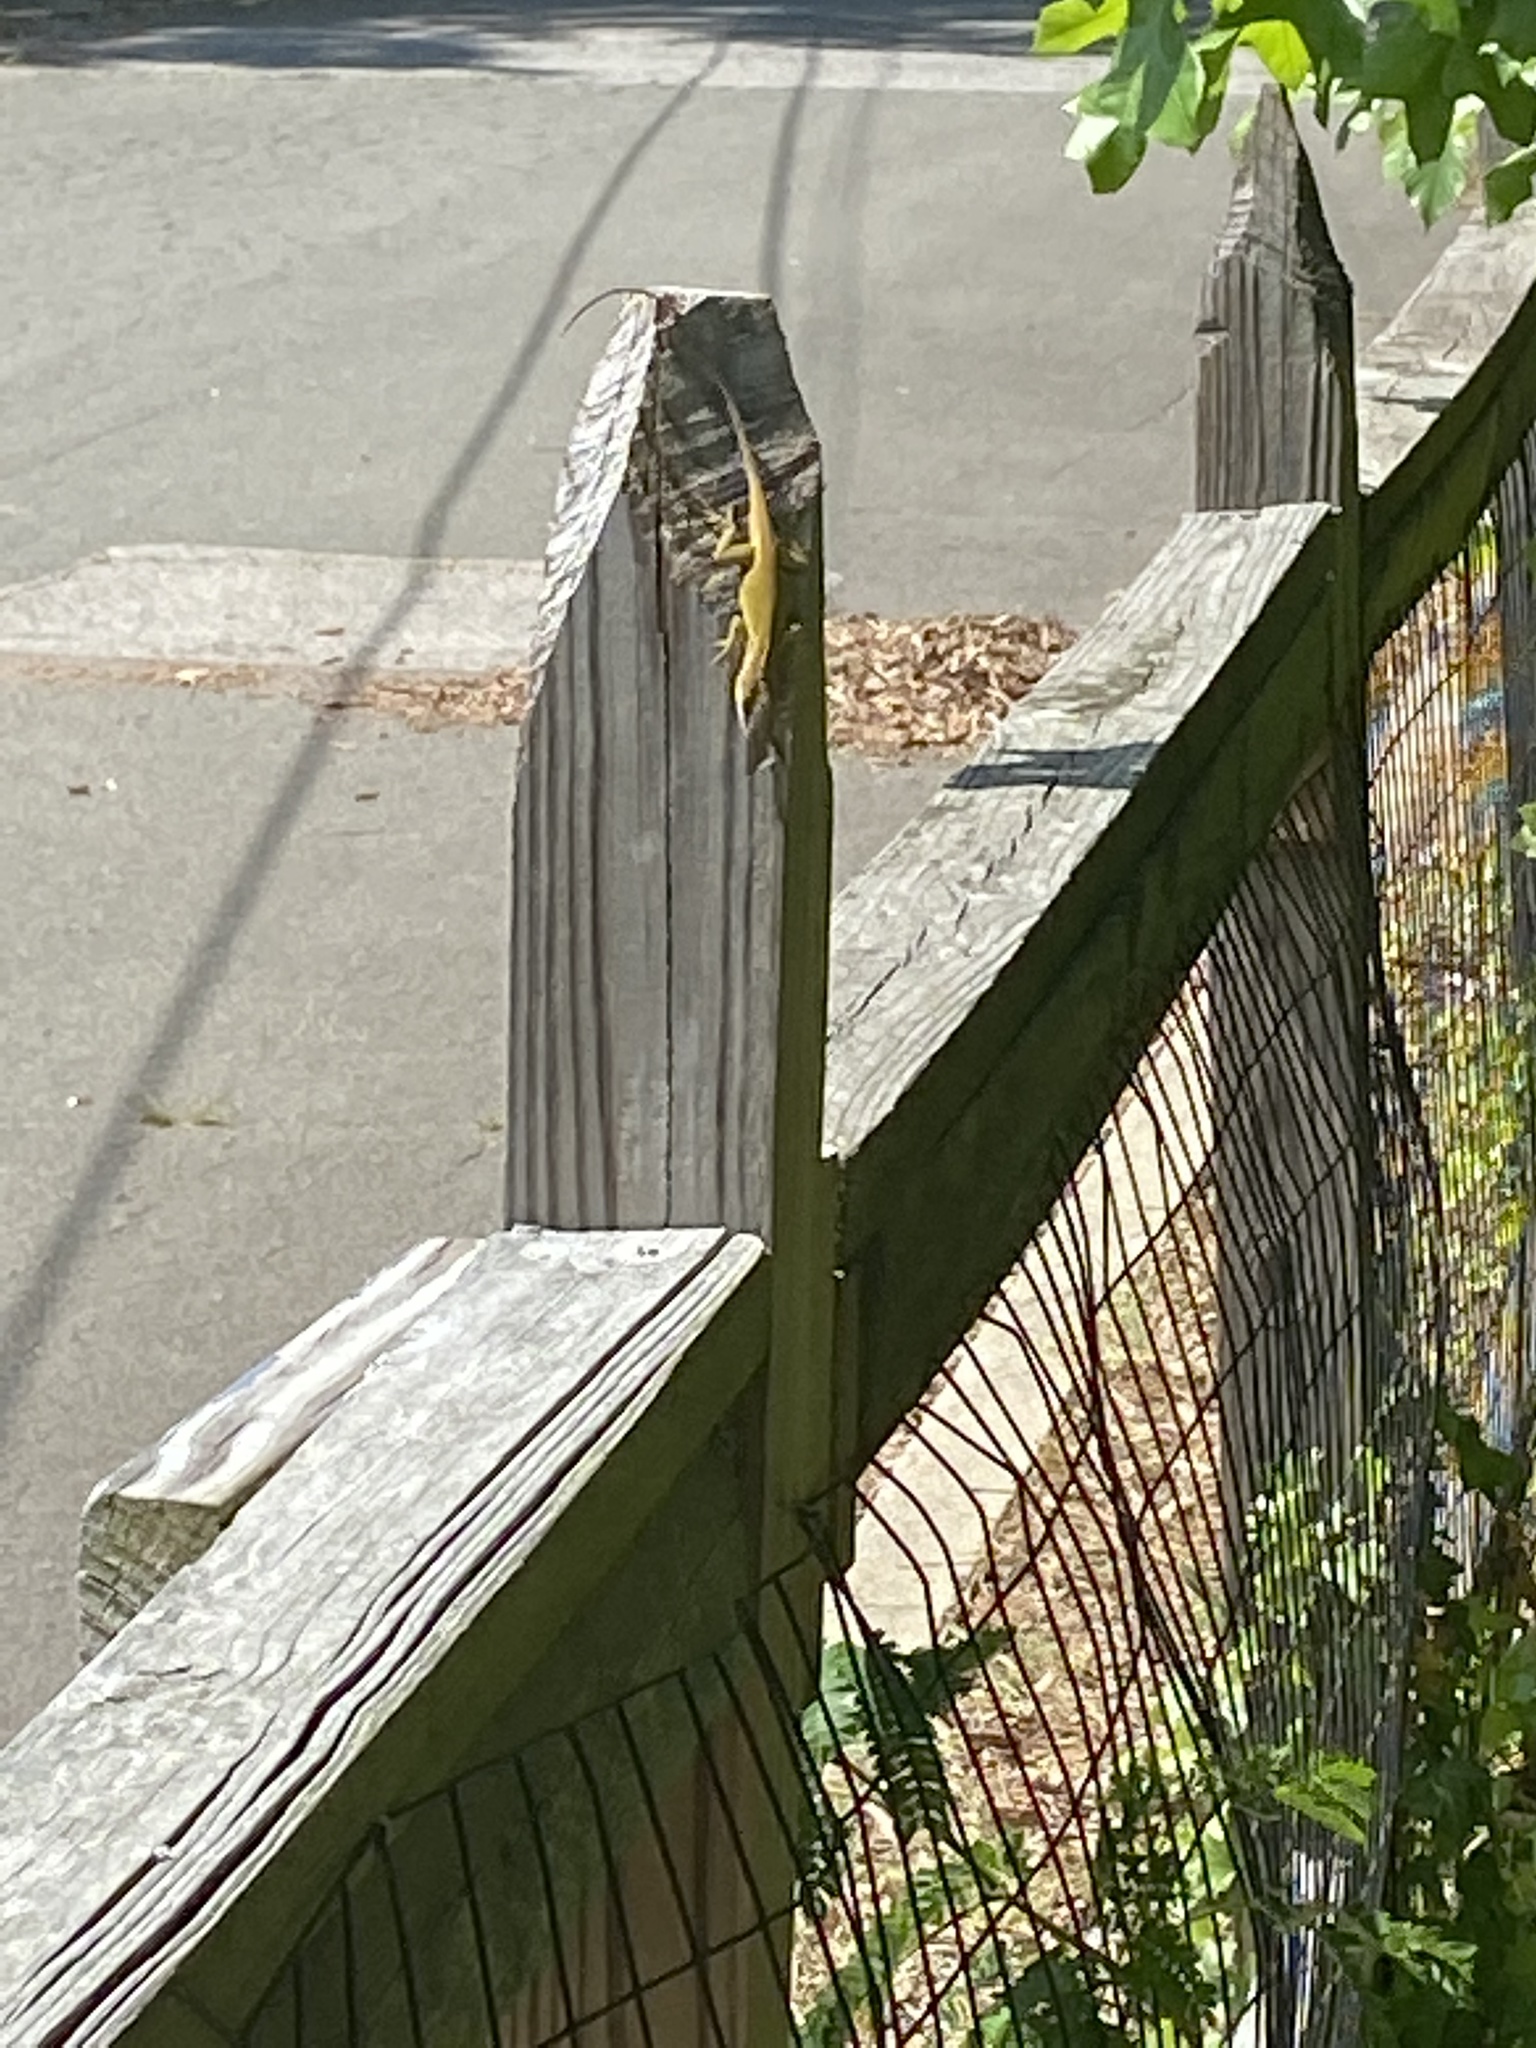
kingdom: Animalia
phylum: Chordata
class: Squamata
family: Dactyloidae
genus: Anolis
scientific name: Anolis carolinensis
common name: Green anole
